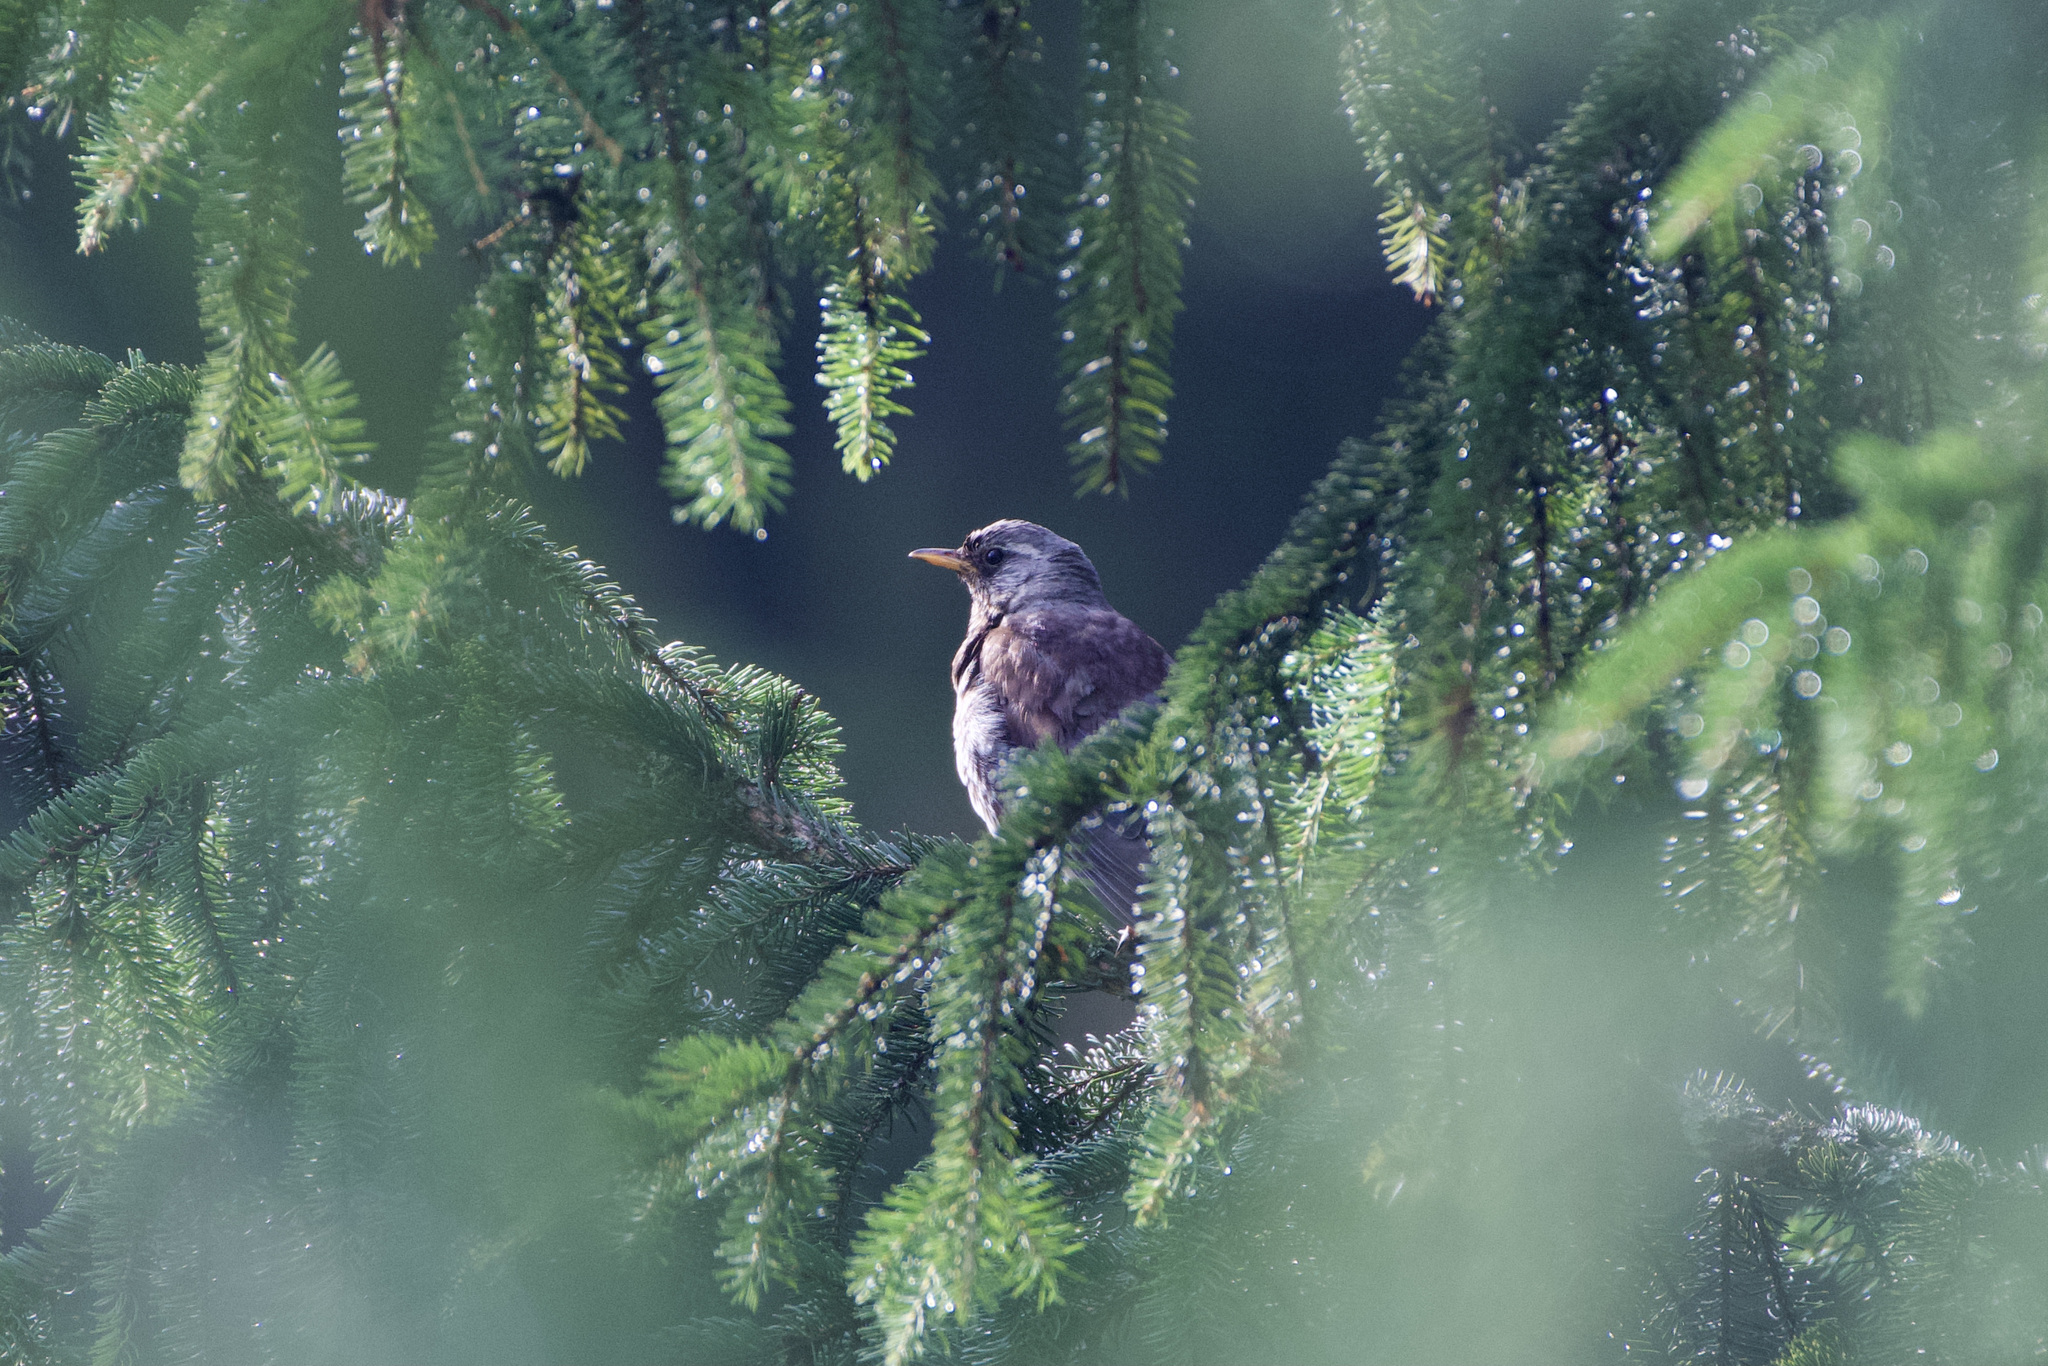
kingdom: Animalia
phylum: Chordata
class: Aves
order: Passeriformes
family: Turdidae
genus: Turdus
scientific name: Turdus pilaris
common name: Fieldfare
